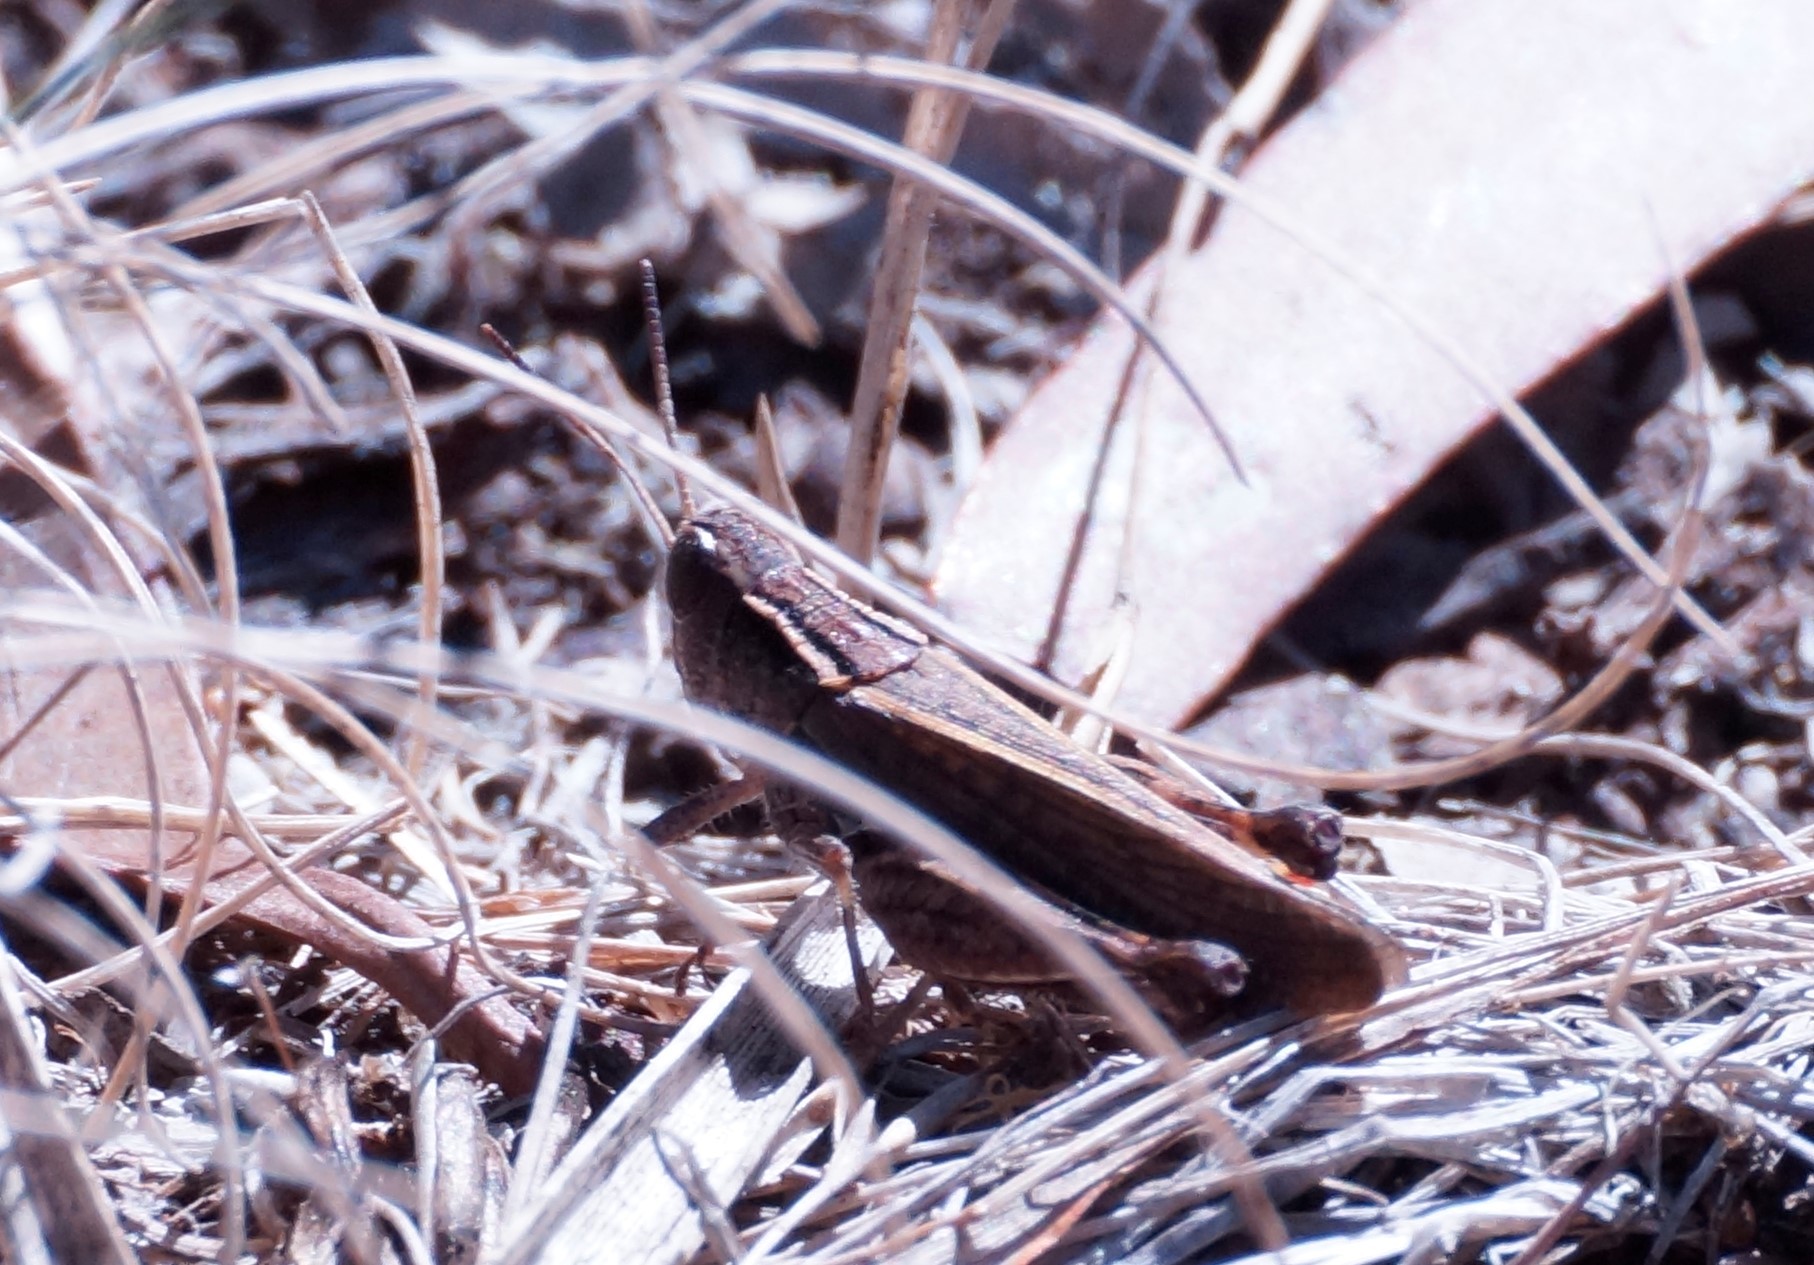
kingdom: Animalia
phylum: Arthropoda
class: Insecta
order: Orthoptera
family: Acrididae
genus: Phaulacridium
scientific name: Phaulacridium vittatum
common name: Wingless grasshopper
